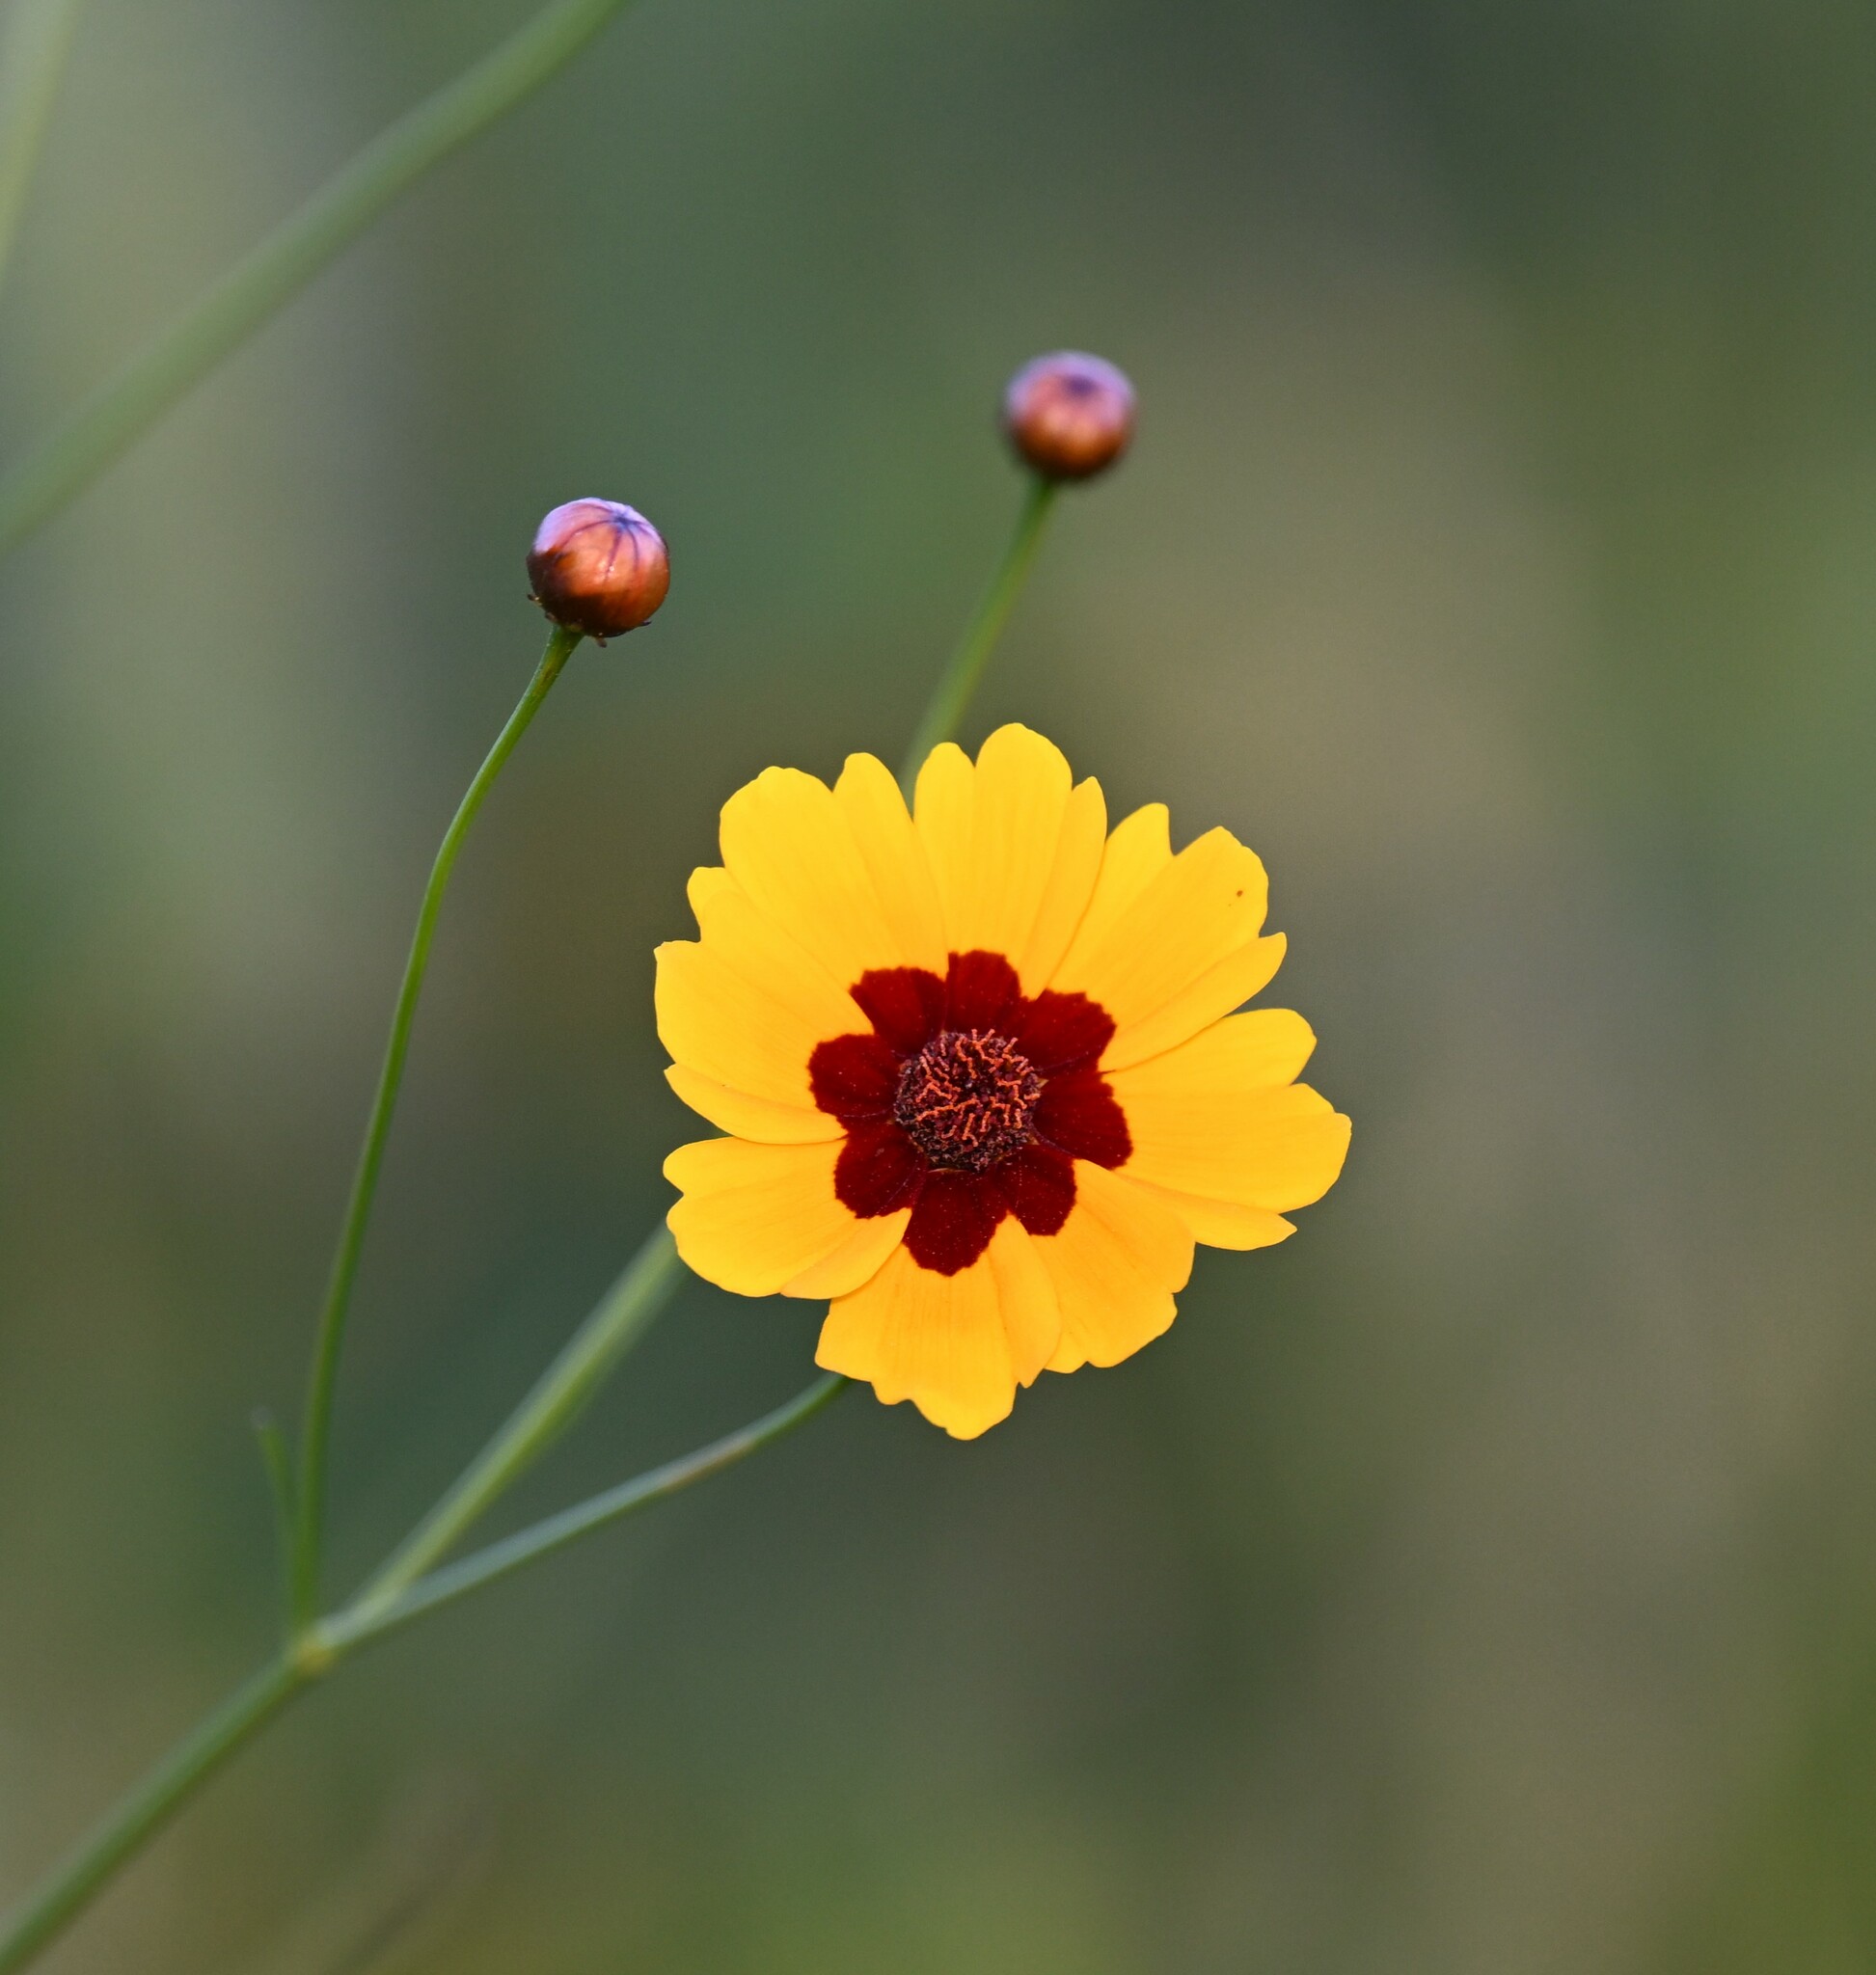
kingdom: Plantae
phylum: Tracheophyta
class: Magnoliopsida
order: Asterales
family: Asteraceae
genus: Coreopsis
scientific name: Coreopsis tinctoria
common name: Garden tickseed
